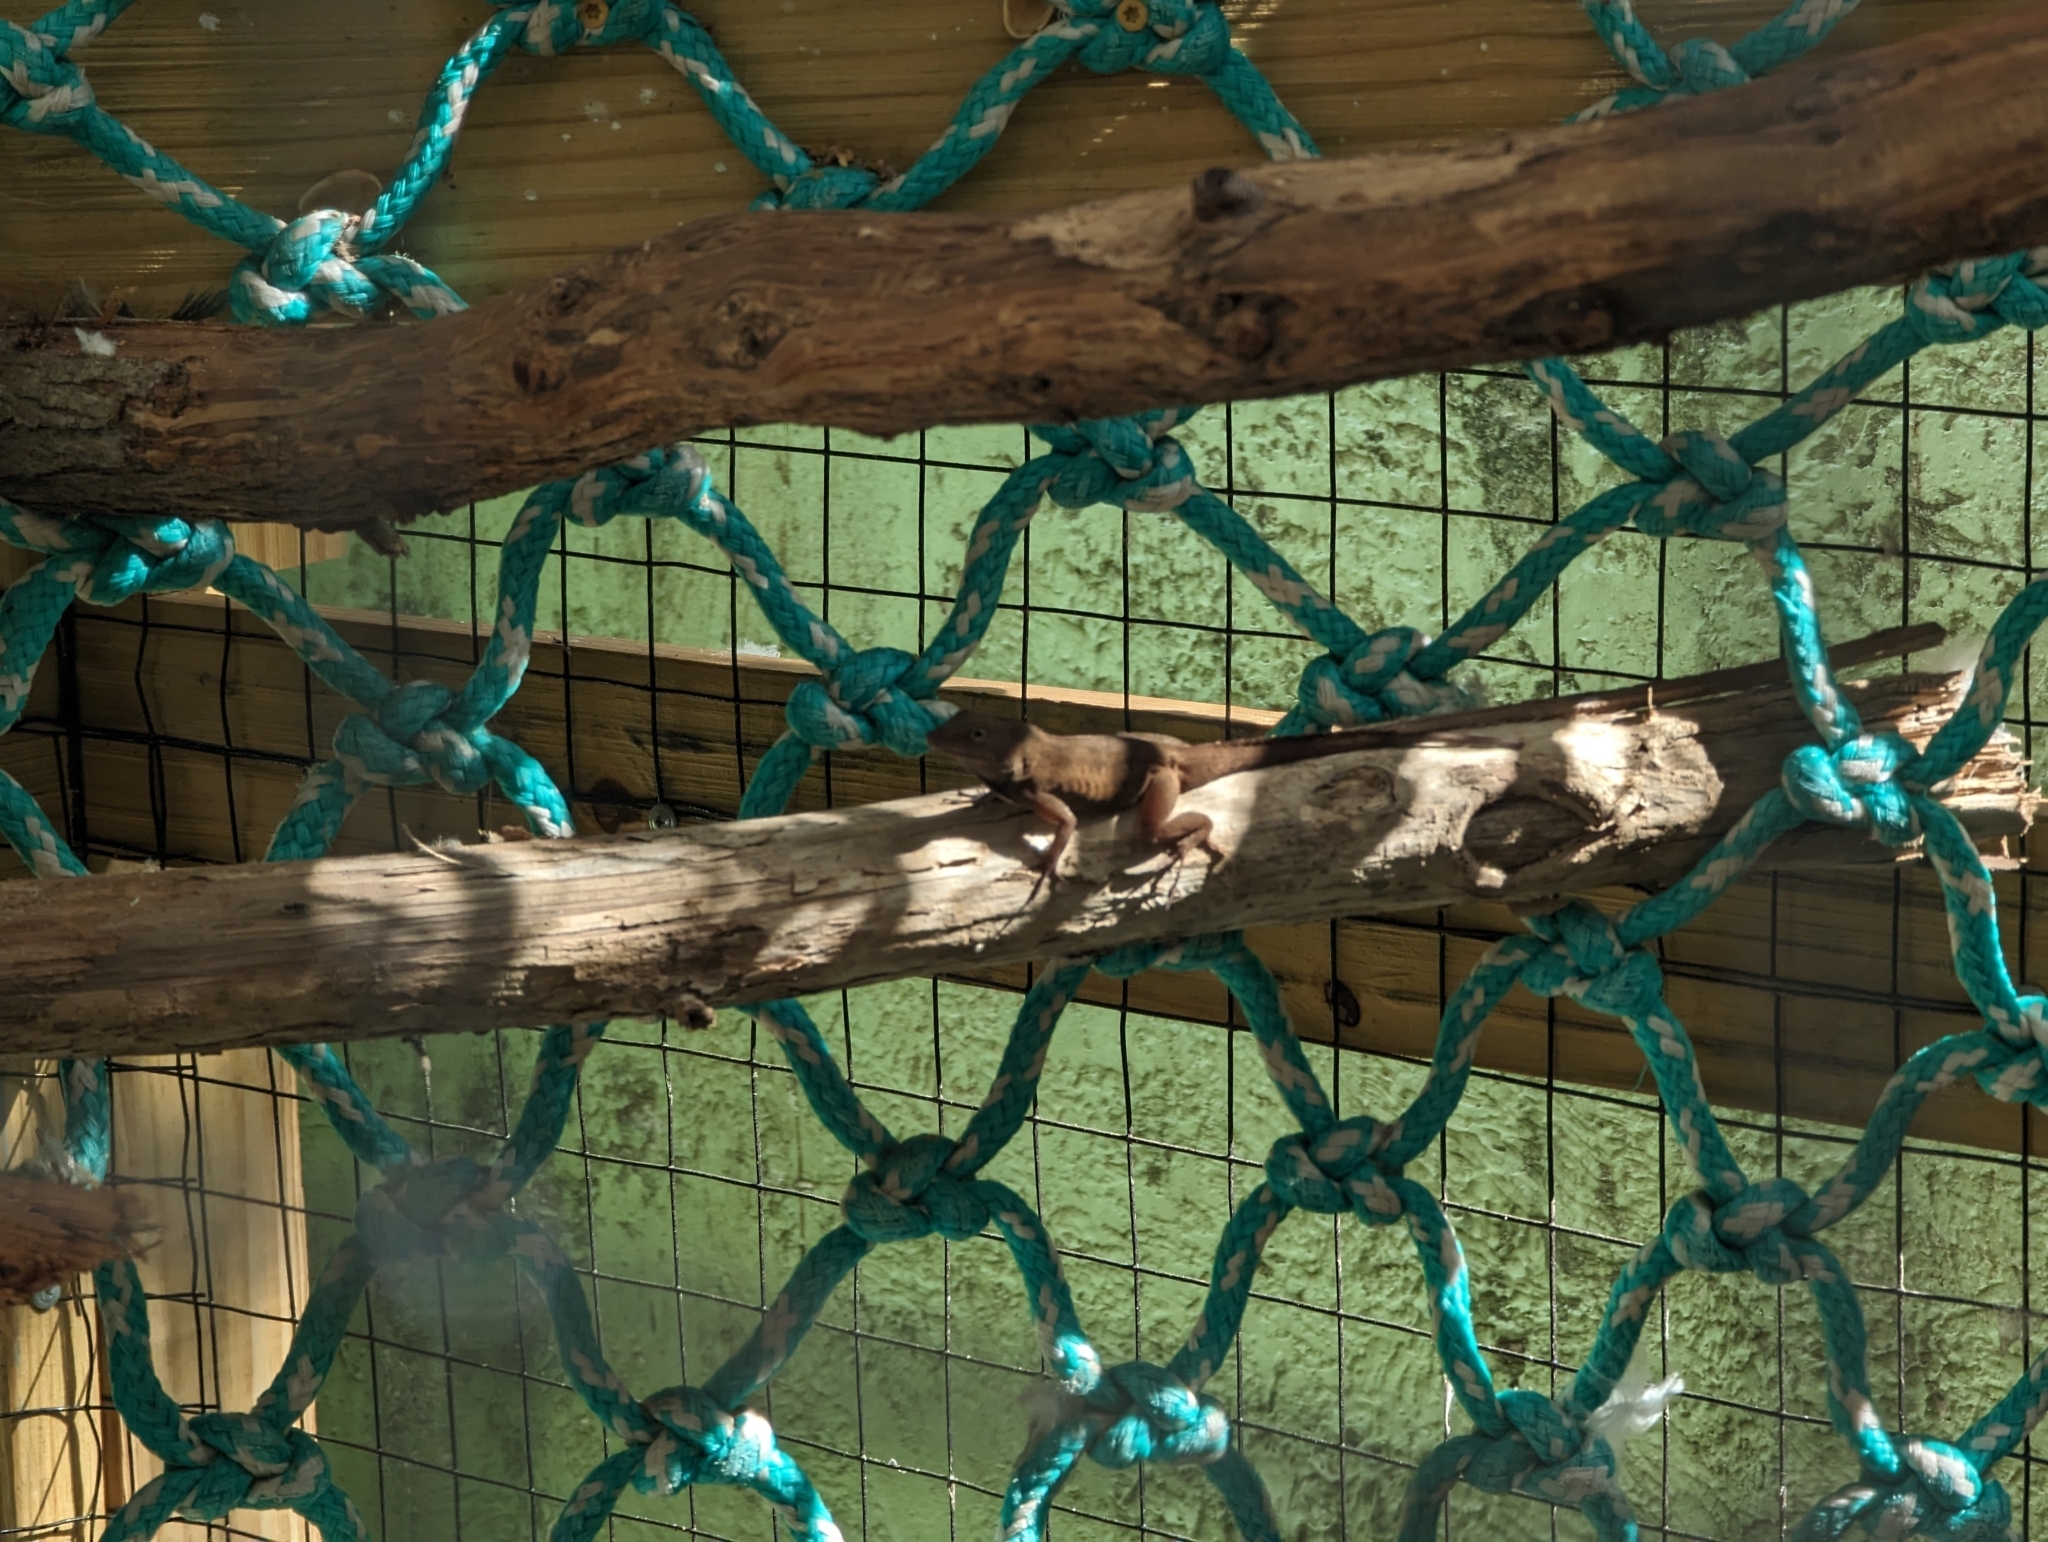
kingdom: Animalia
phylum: Chordata
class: Squamata
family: Dactyloidae
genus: Anolis
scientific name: Anolis cristatellus
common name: Crested anole
